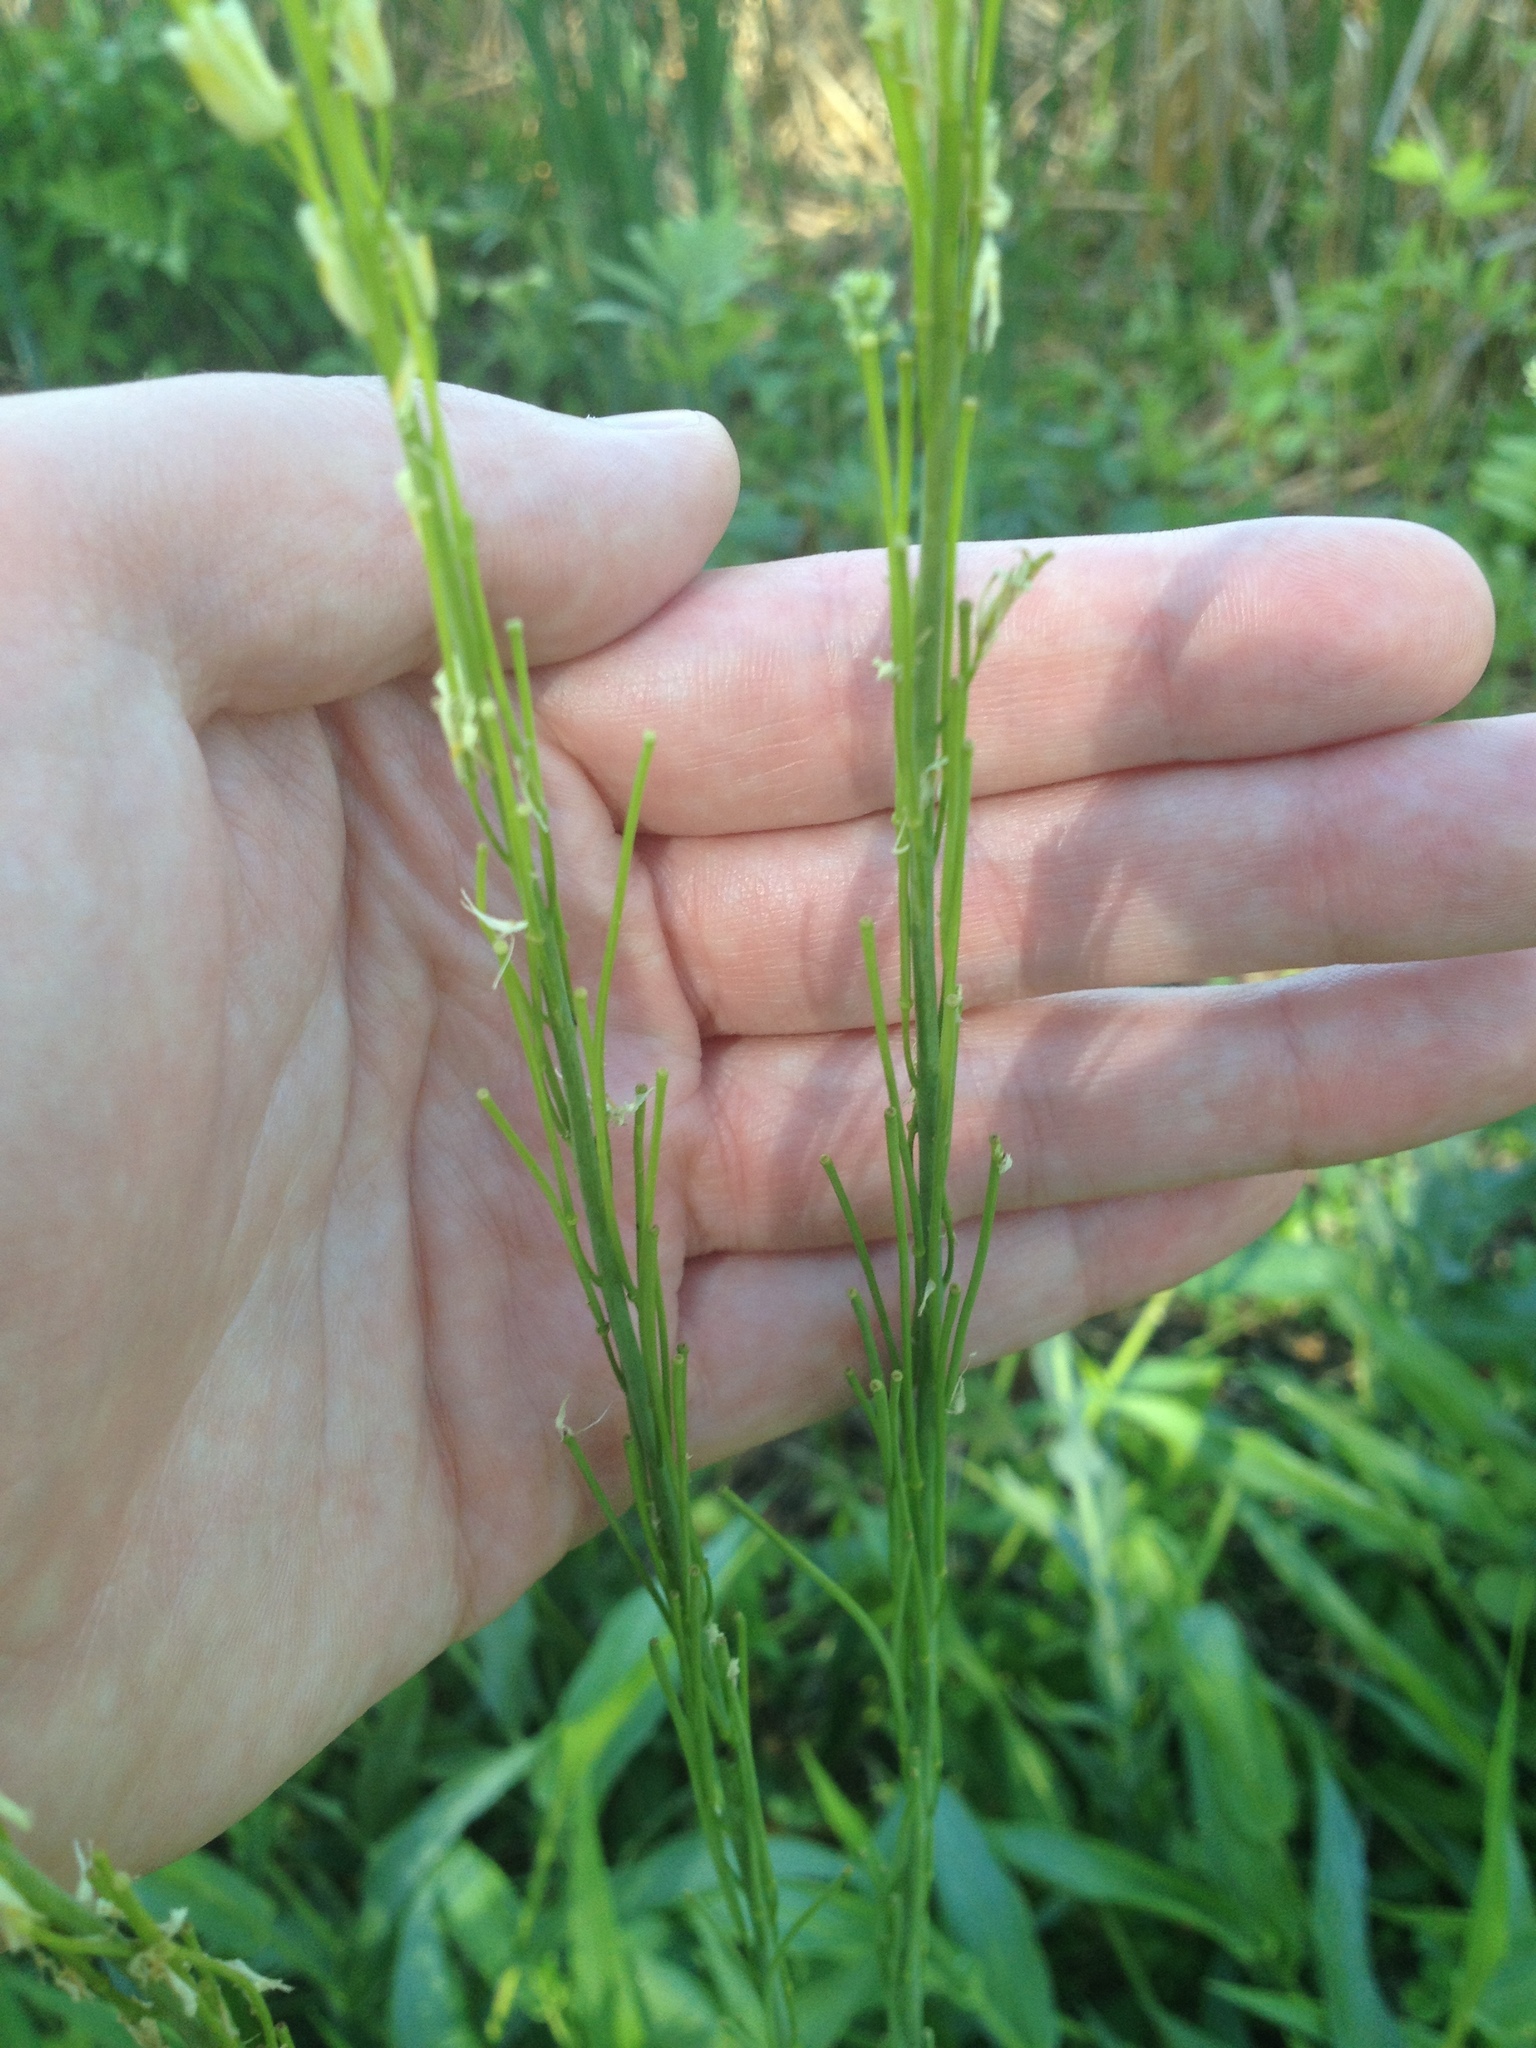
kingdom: Plantae
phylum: Tracheophyta
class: Magnoliopsida
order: Brassicales
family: Brassicaceae
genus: Turritis
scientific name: Turritis glabra
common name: Tower rockcress
